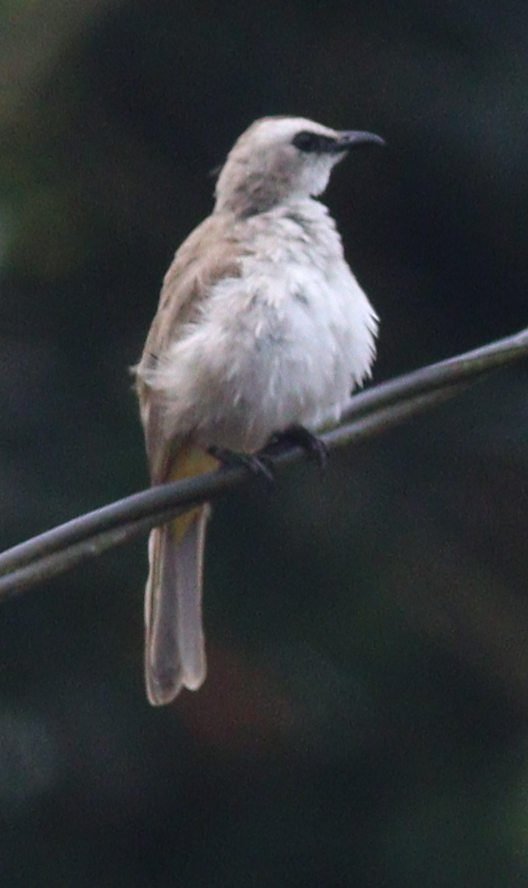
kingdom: Animalia
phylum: Chordata
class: Aves
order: Passeriformes
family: Pycnonotidae
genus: Pycnonotus
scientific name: Pycnonotus goiavier
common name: Yellow-vented bulbul
